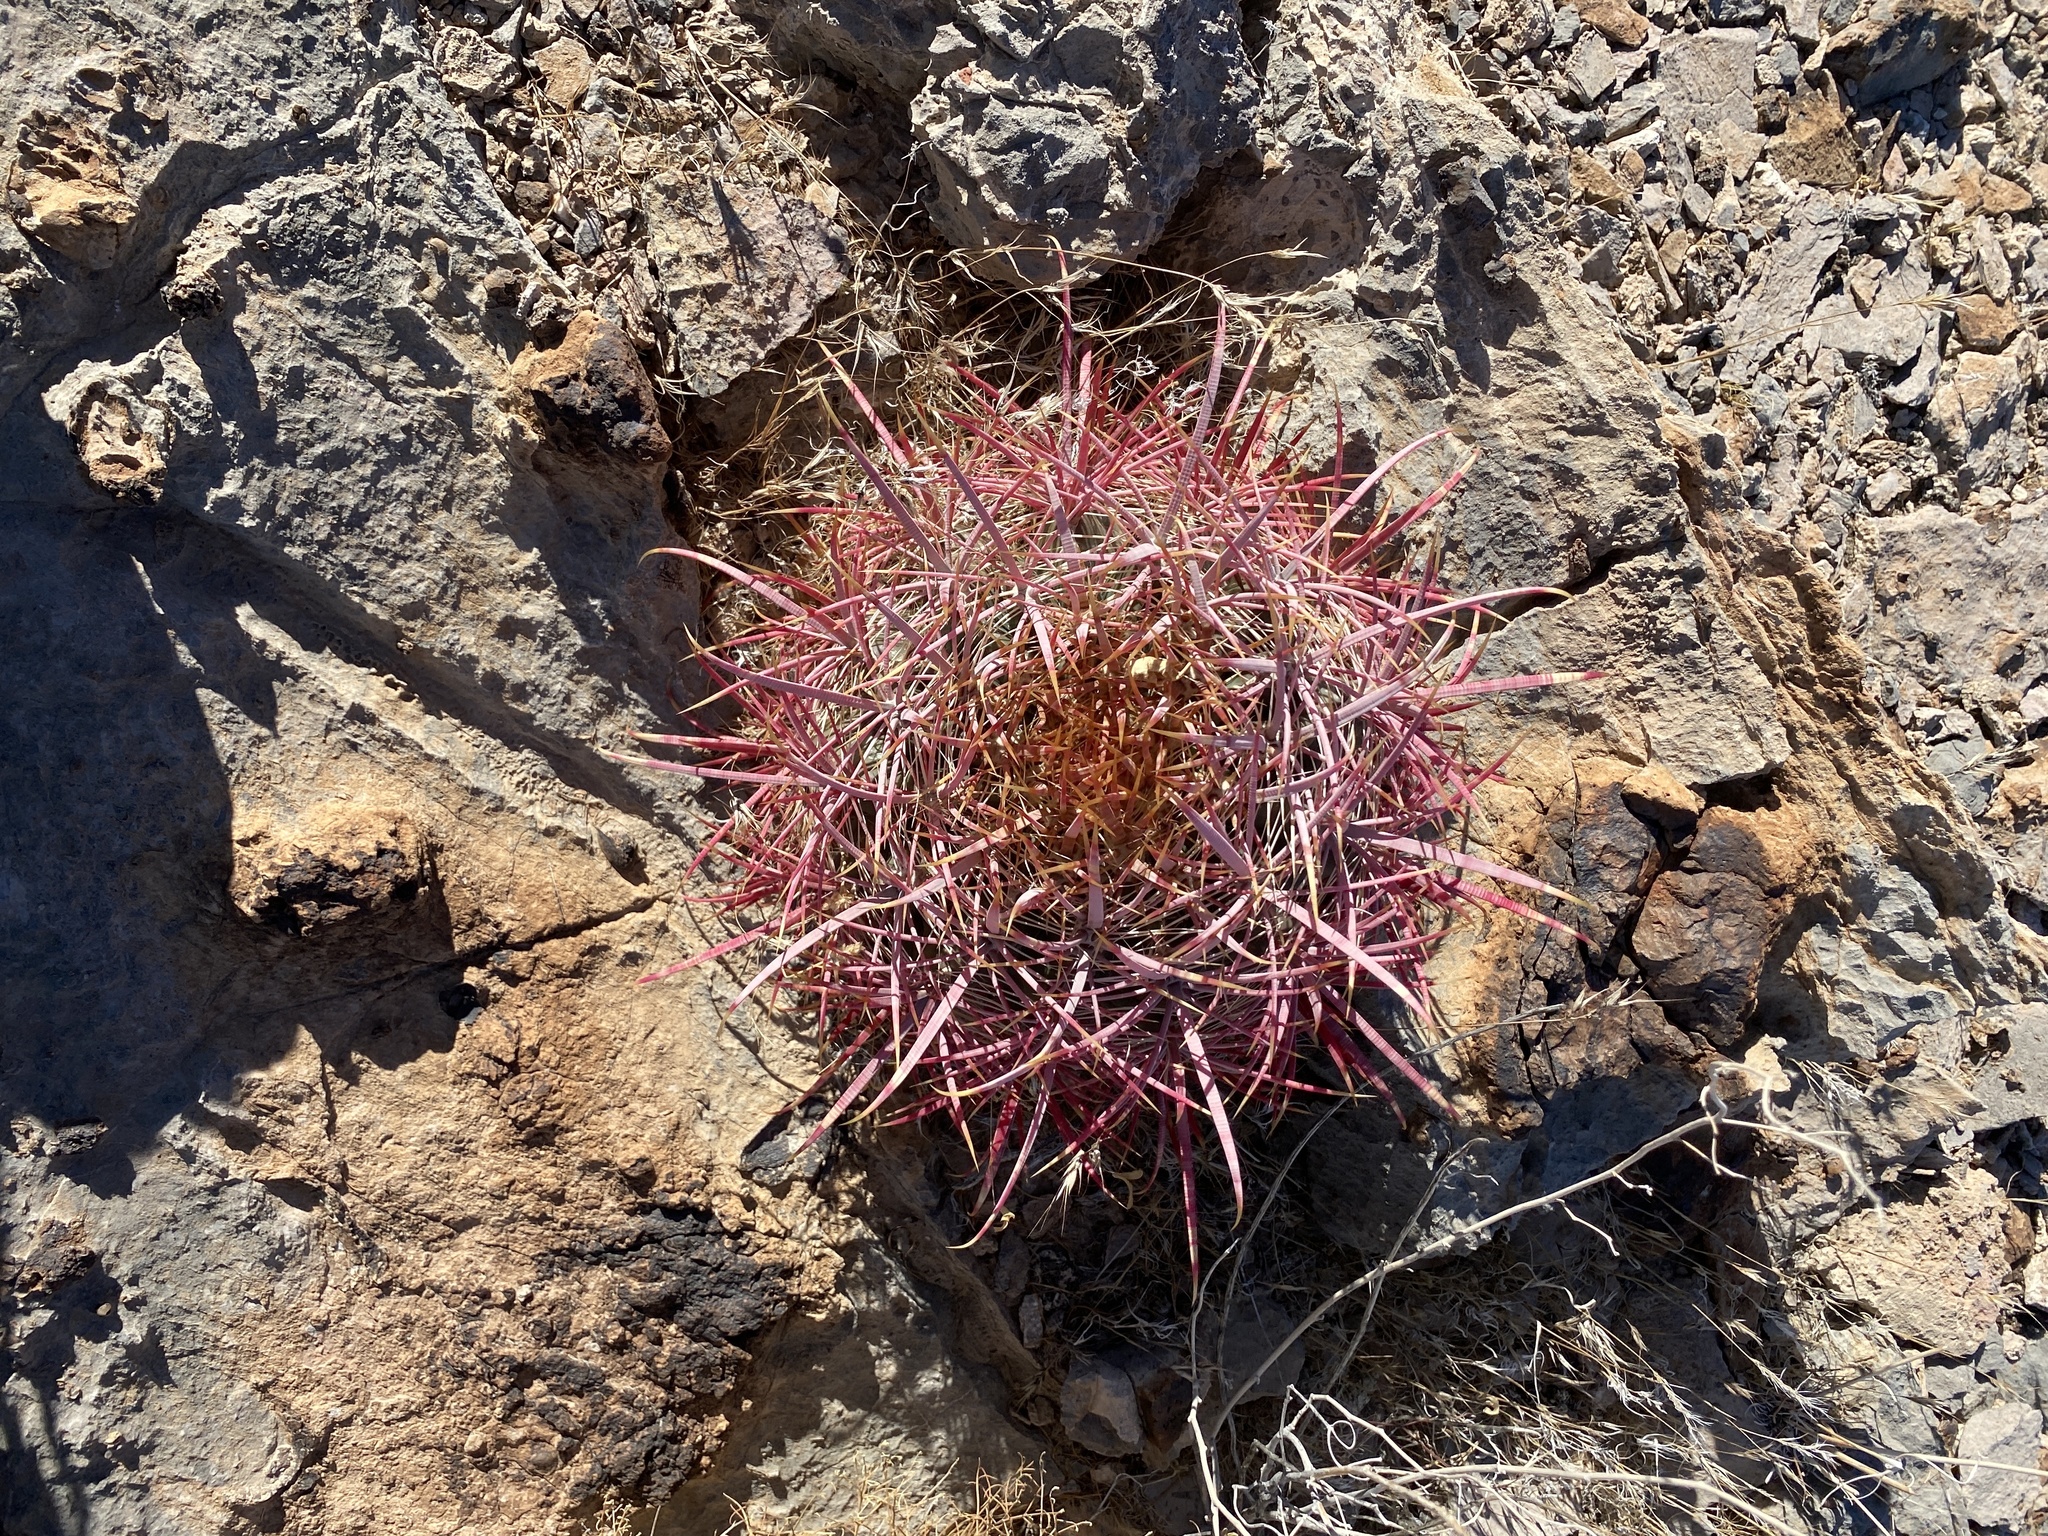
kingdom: Plantae
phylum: Tracheophyta
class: Magnoliopsida
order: Caryophyllales
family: Cactaceae
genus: Ferocactus
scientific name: Ferocactus cylindraceus
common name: California barrel cactus
